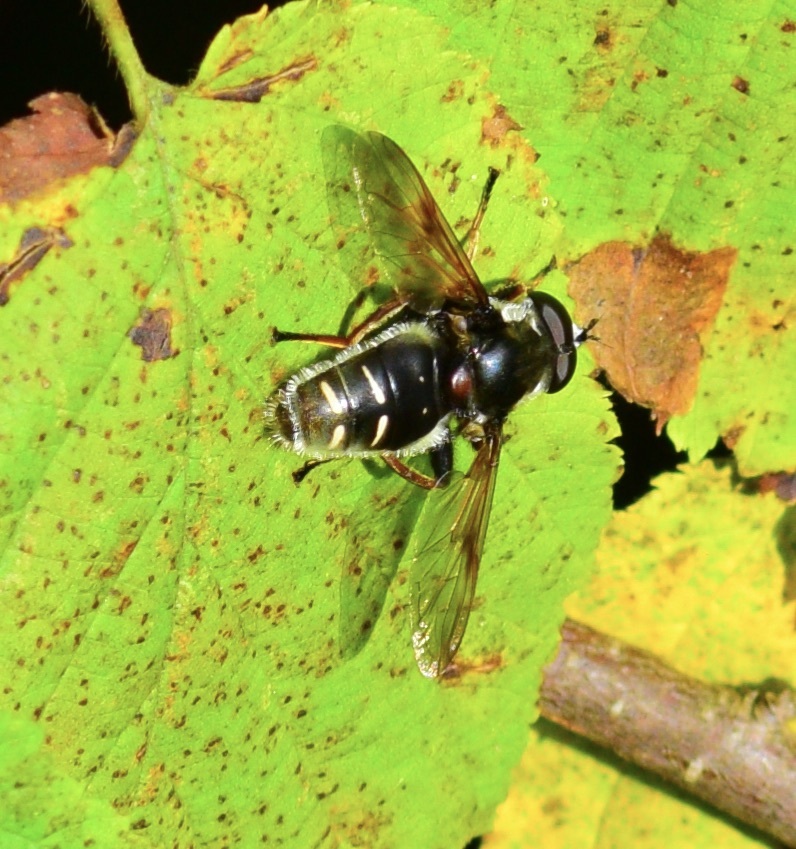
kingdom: Animalia
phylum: Arthropoda
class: Insecta
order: Diptera
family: Syrphidae
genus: Sericomyia
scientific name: Sericomyia militaris
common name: Narrow-banded pond fly
